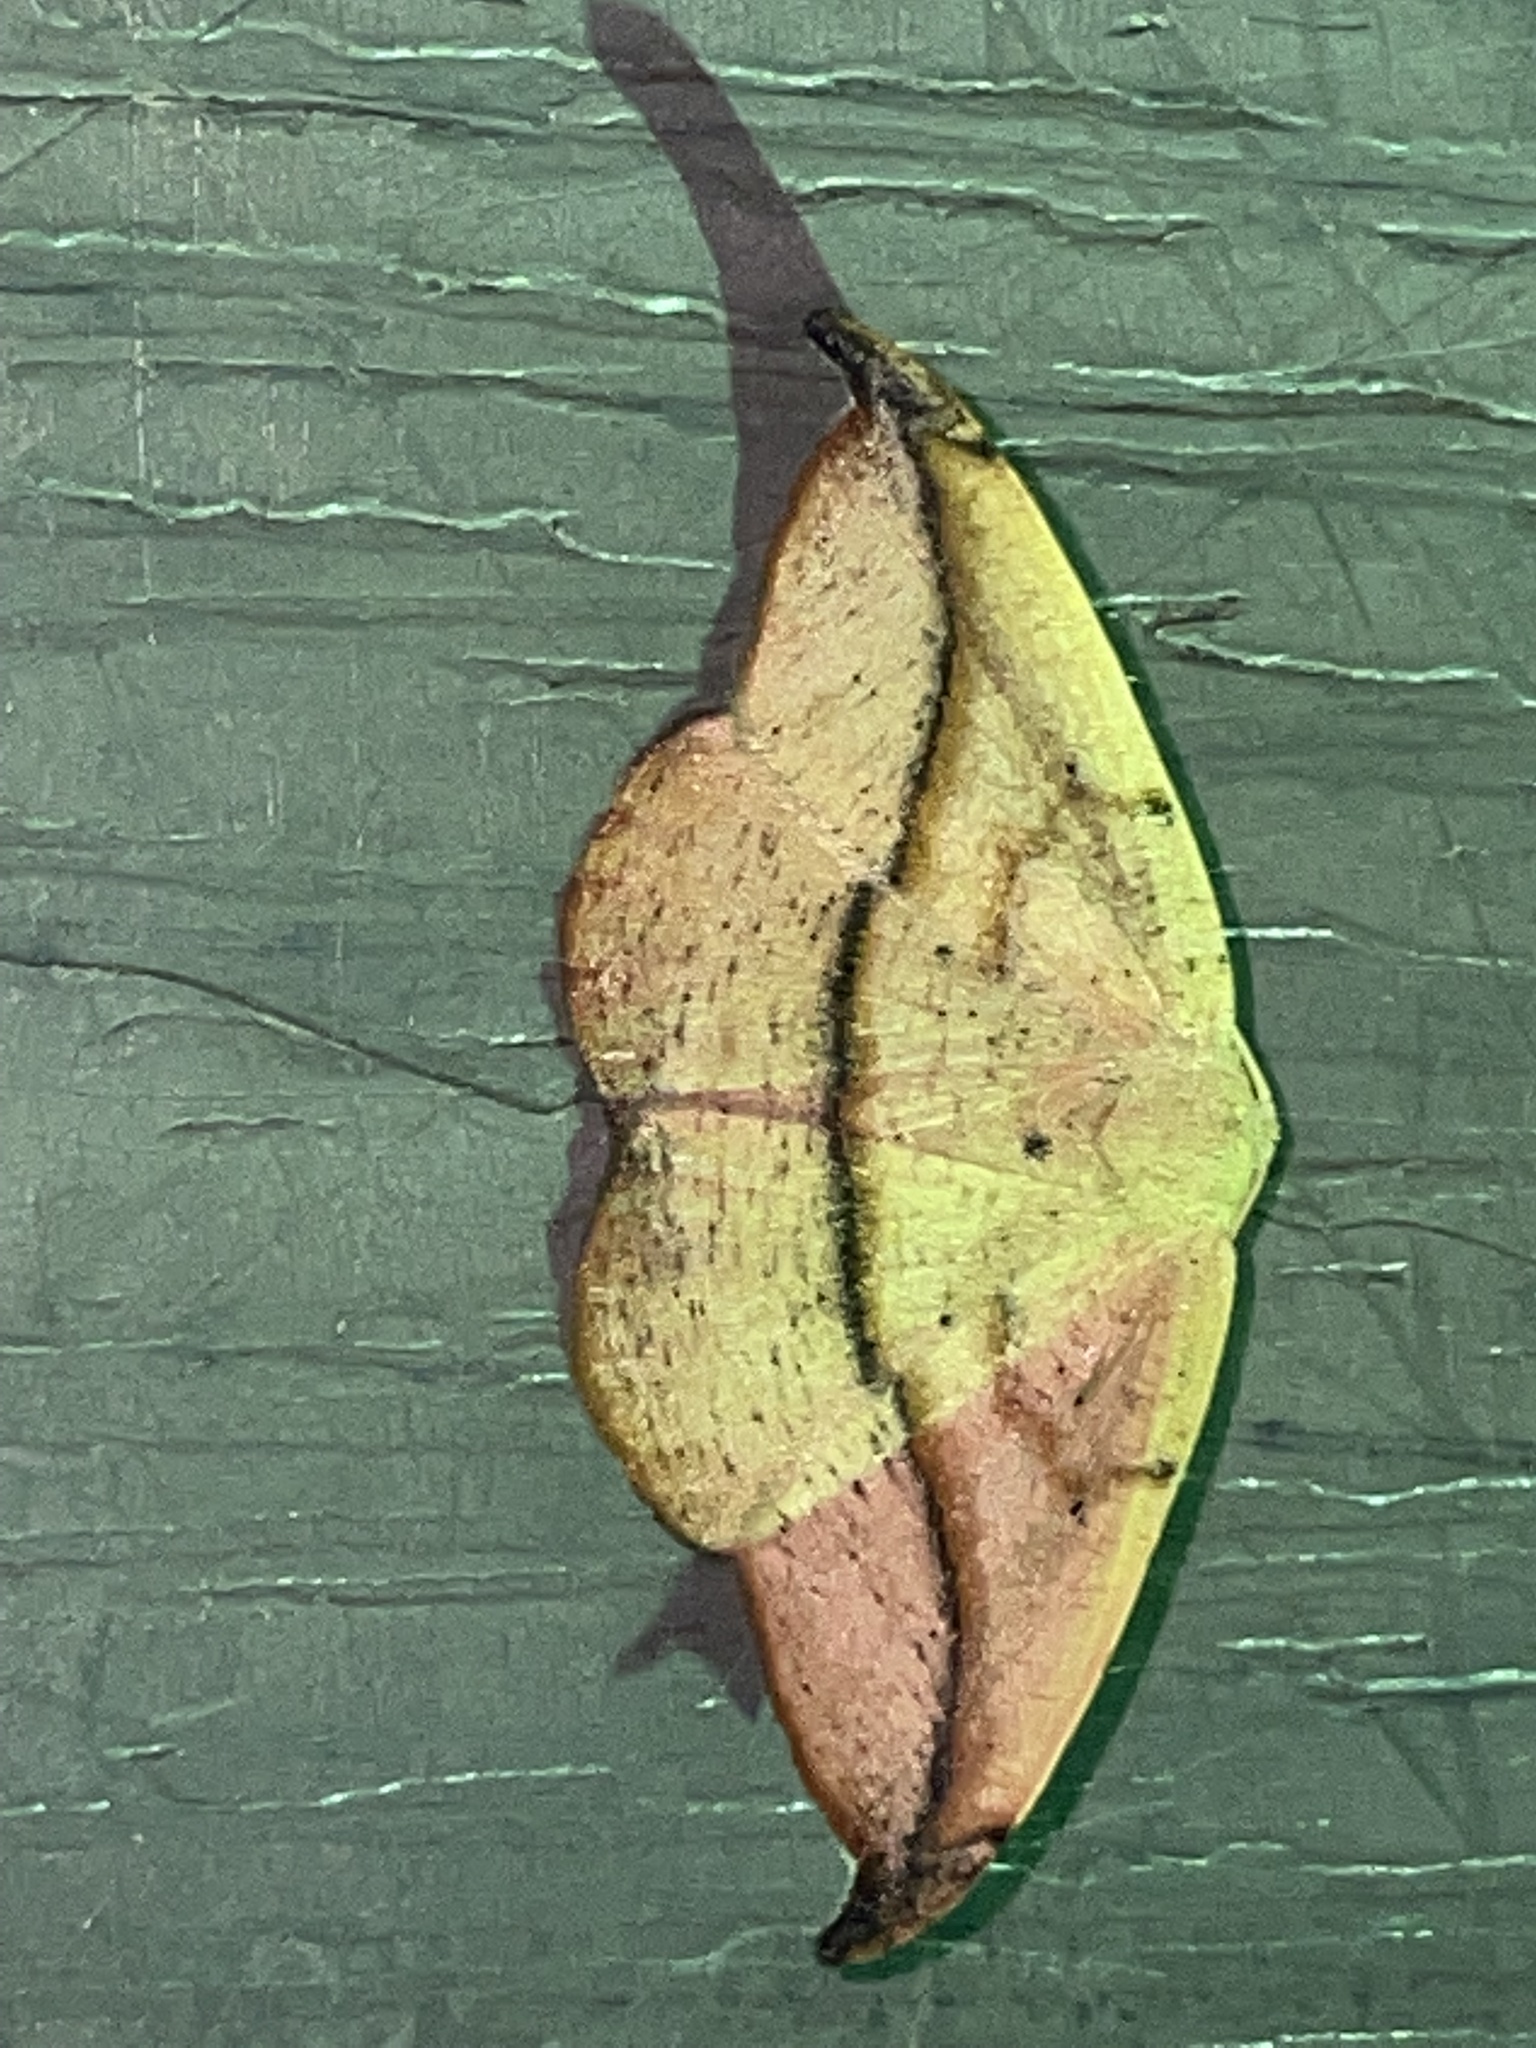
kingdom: Animalia
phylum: Arthropoda
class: Insecta
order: Lepidoptera
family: Geometridae
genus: Patalene
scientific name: Patalene olyzonaria
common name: Juniper geometer moth
